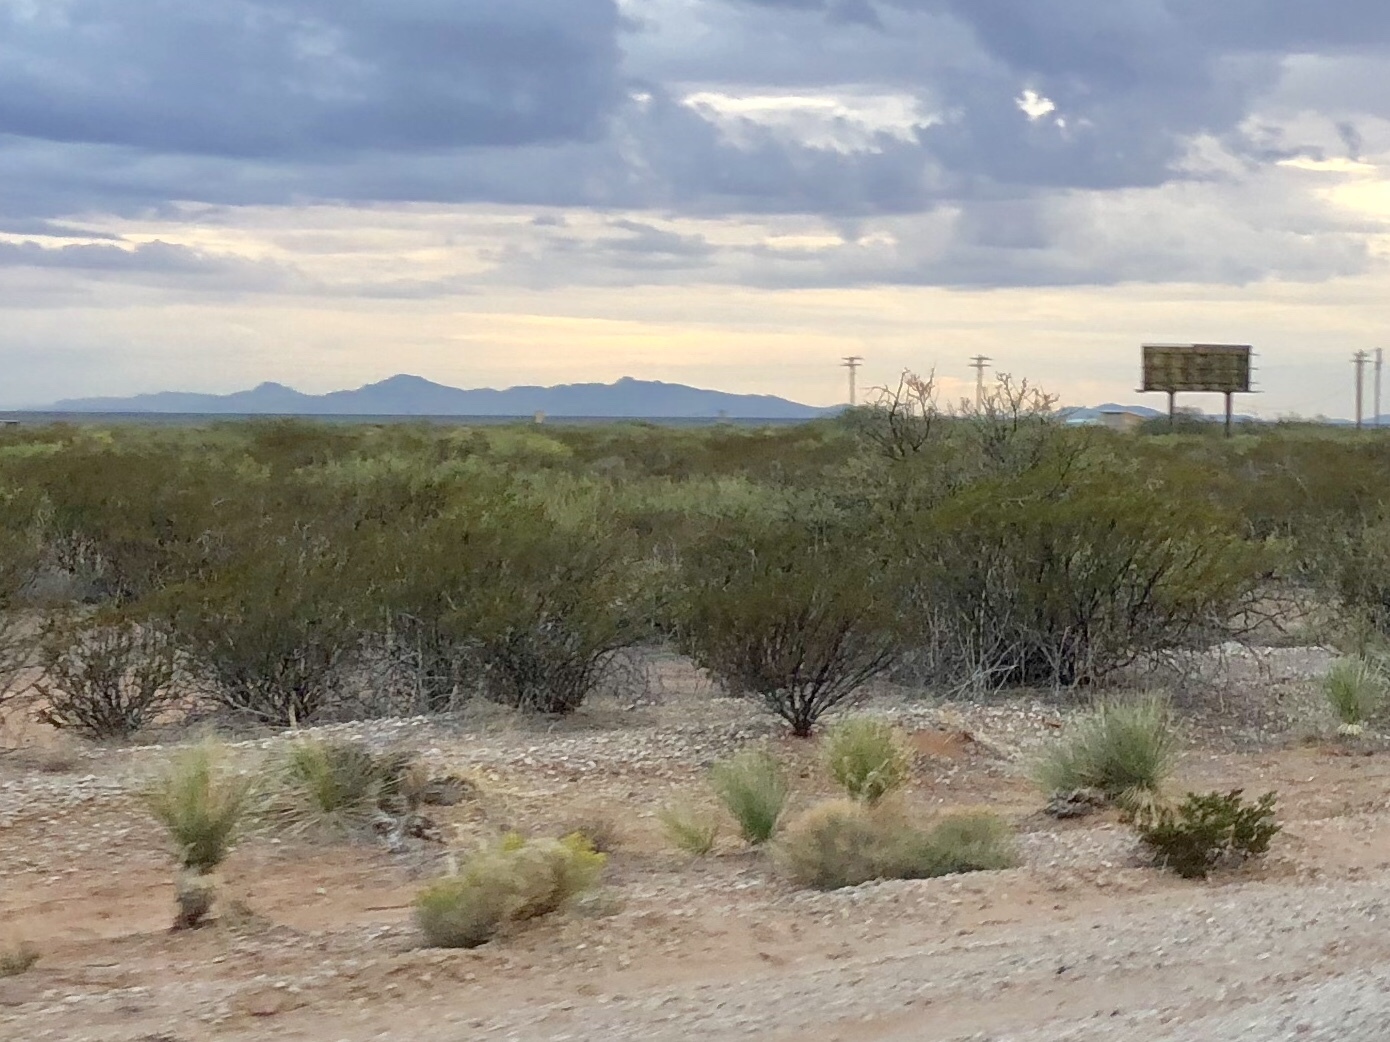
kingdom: Plantae
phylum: Tracheophyta
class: Magnoliopsida
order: Zygophyllales
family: Zygophyllaceae
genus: Larrea
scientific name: Larrea tridentata
